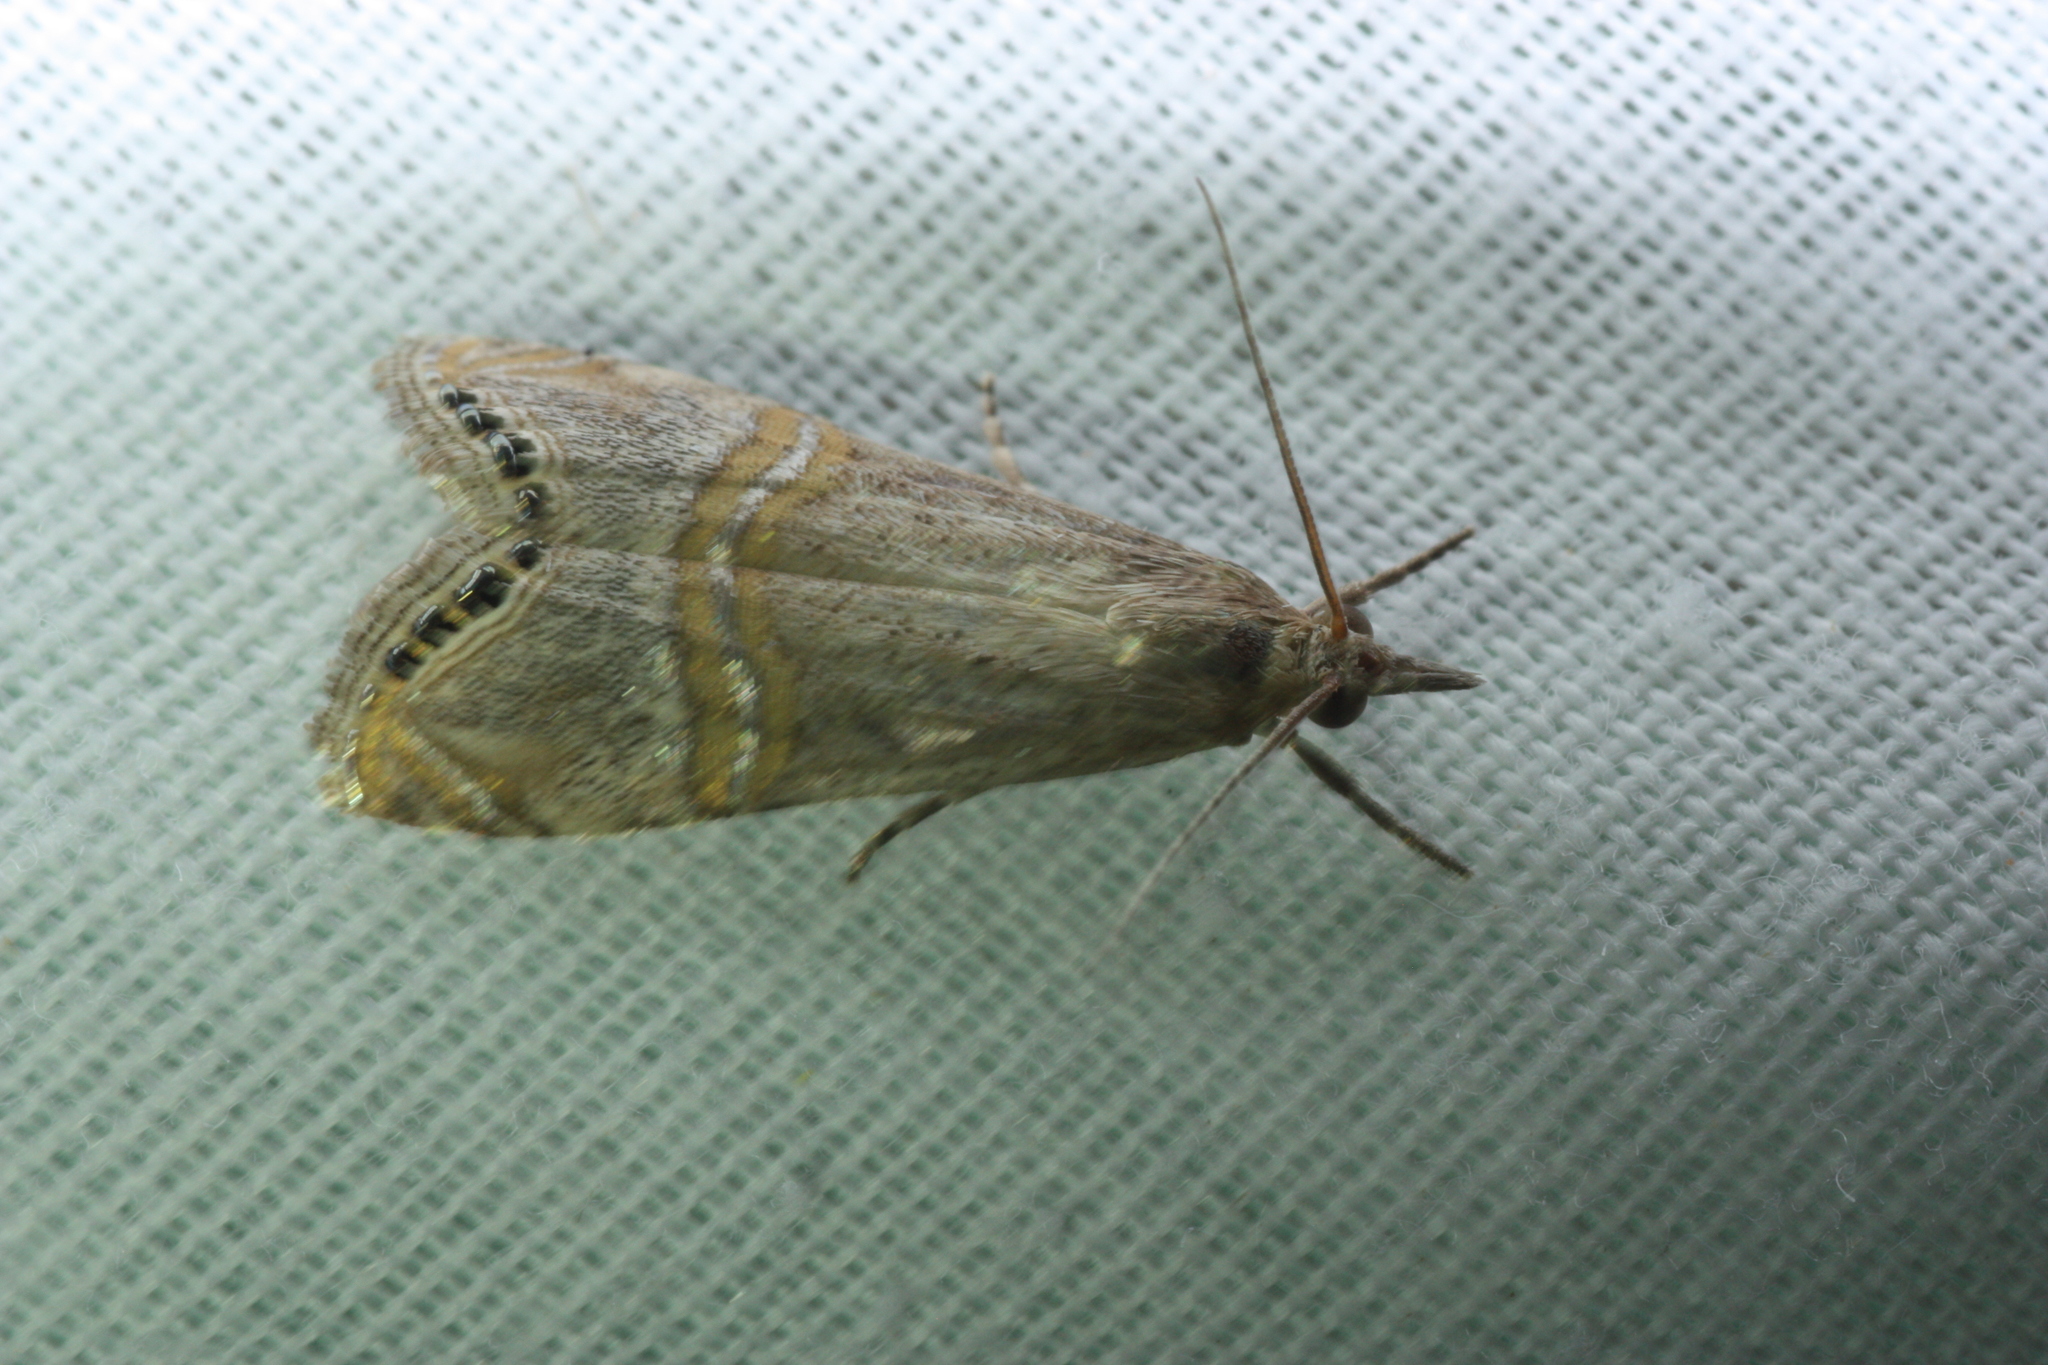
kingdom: Animalia
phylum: Arthropoda
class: Insecta
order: Lepidoptera
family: Crambidae
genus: Euchromius
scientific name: Euchromius ocellea
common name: Necklace veneer moth
